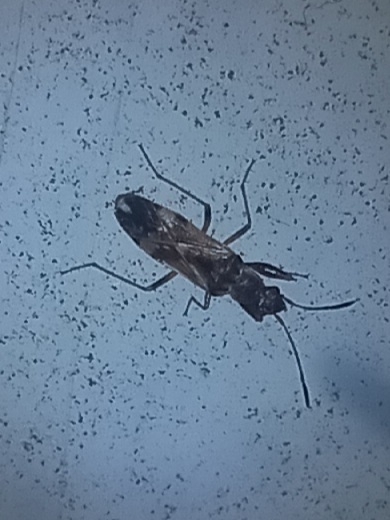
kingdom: Animalia
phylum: Arthropoda
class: Insecta
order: Hemiptera
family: Rhyparochromidae
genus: Neopamera
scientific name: Neopamera bilobata
